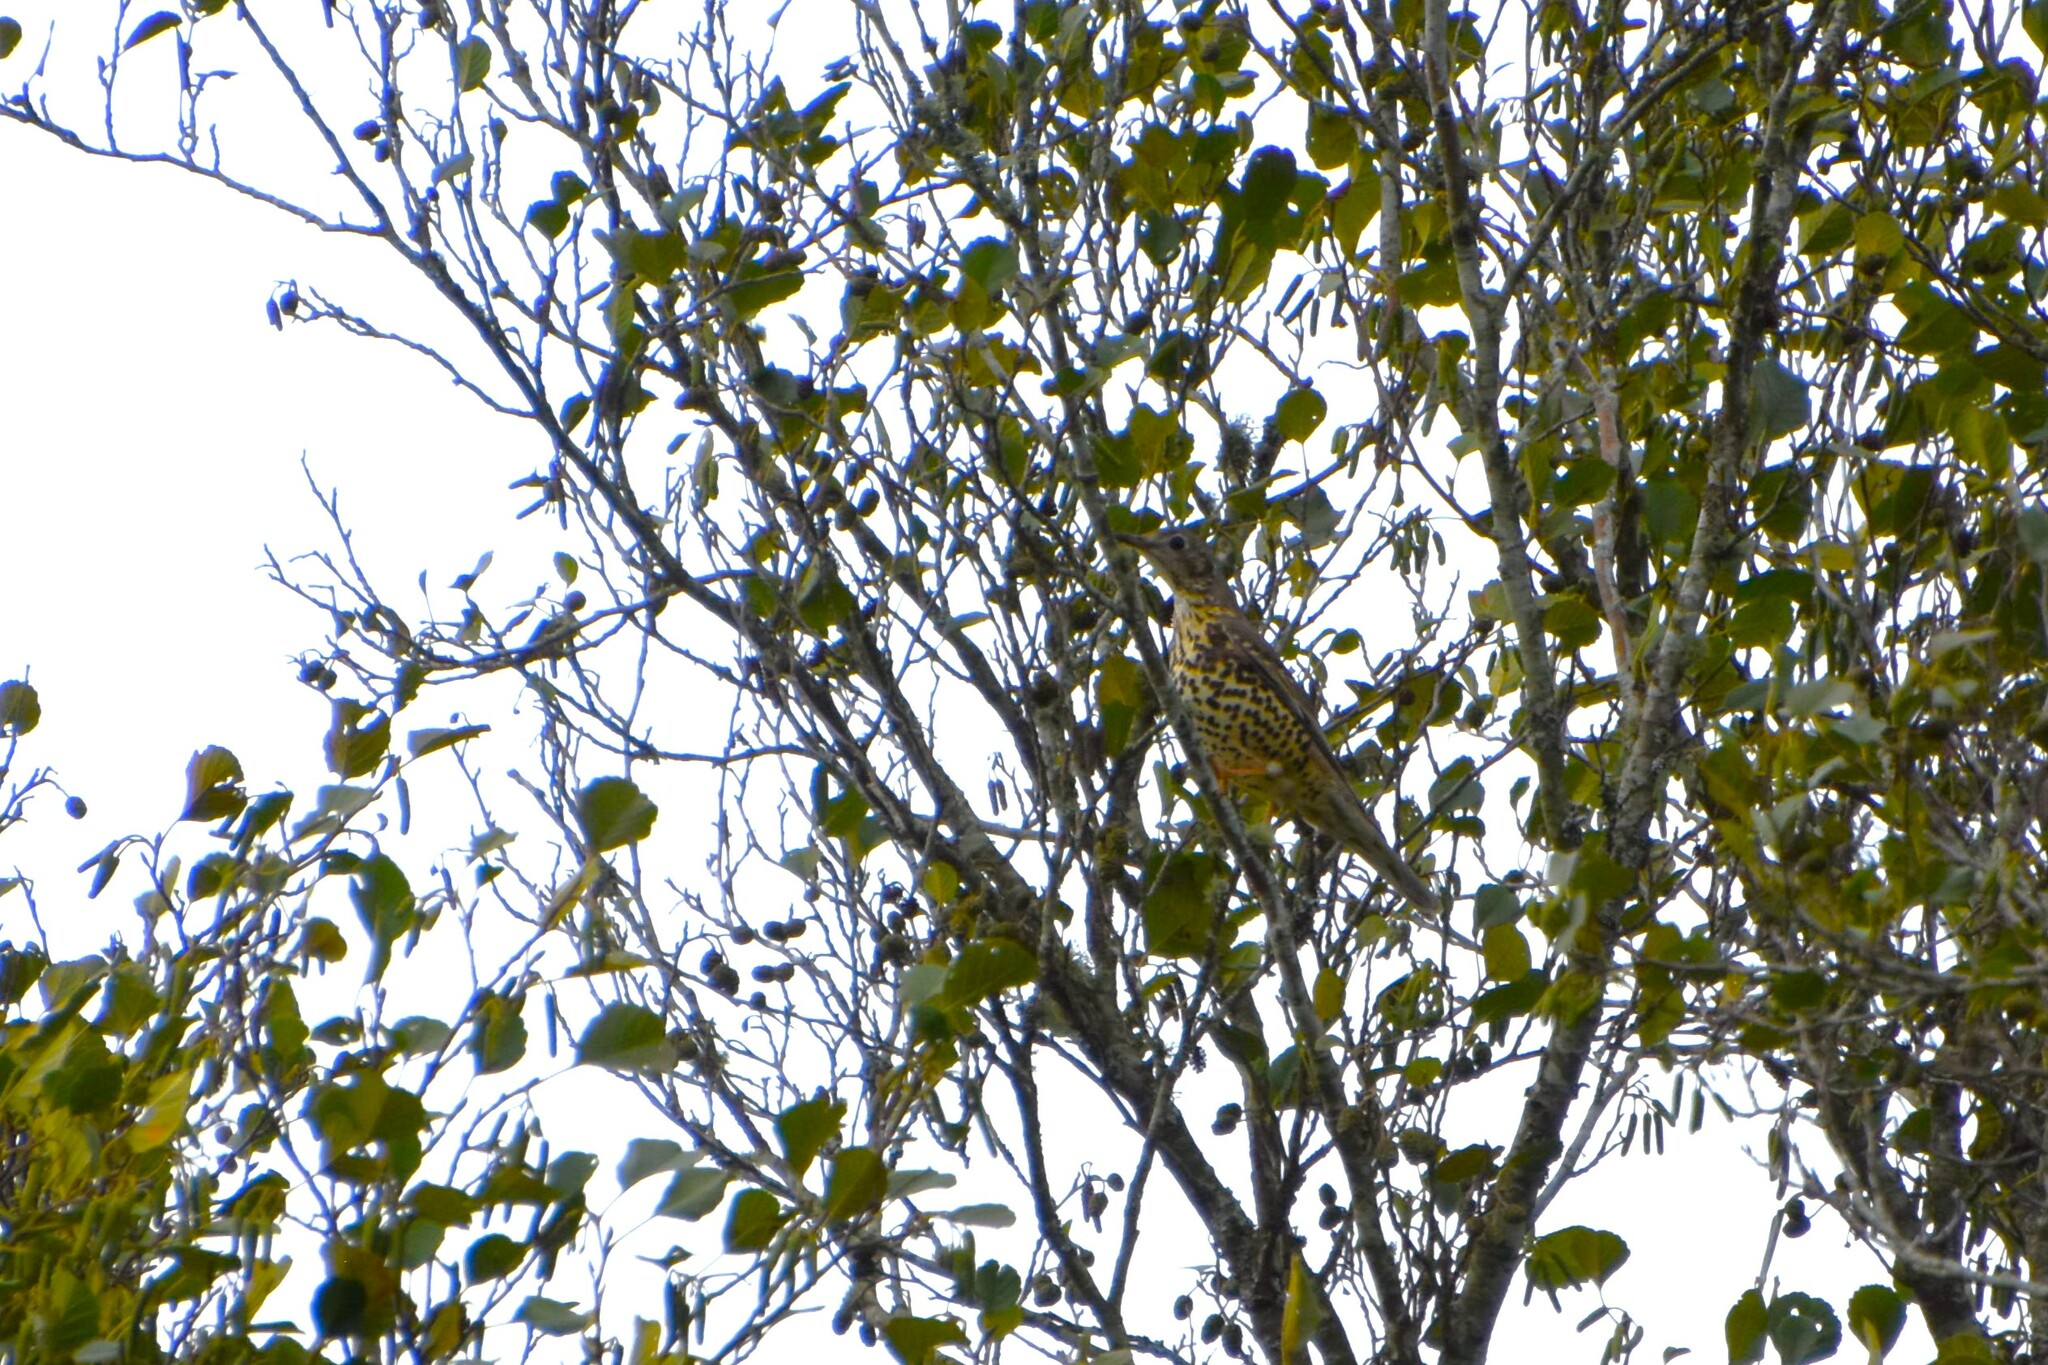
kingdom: Animalia
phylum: Chordata
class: Aves
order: Passeriformes
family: Turdidae
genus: Turdus
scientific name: Turdus viscivorus
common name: Mistle thrush
